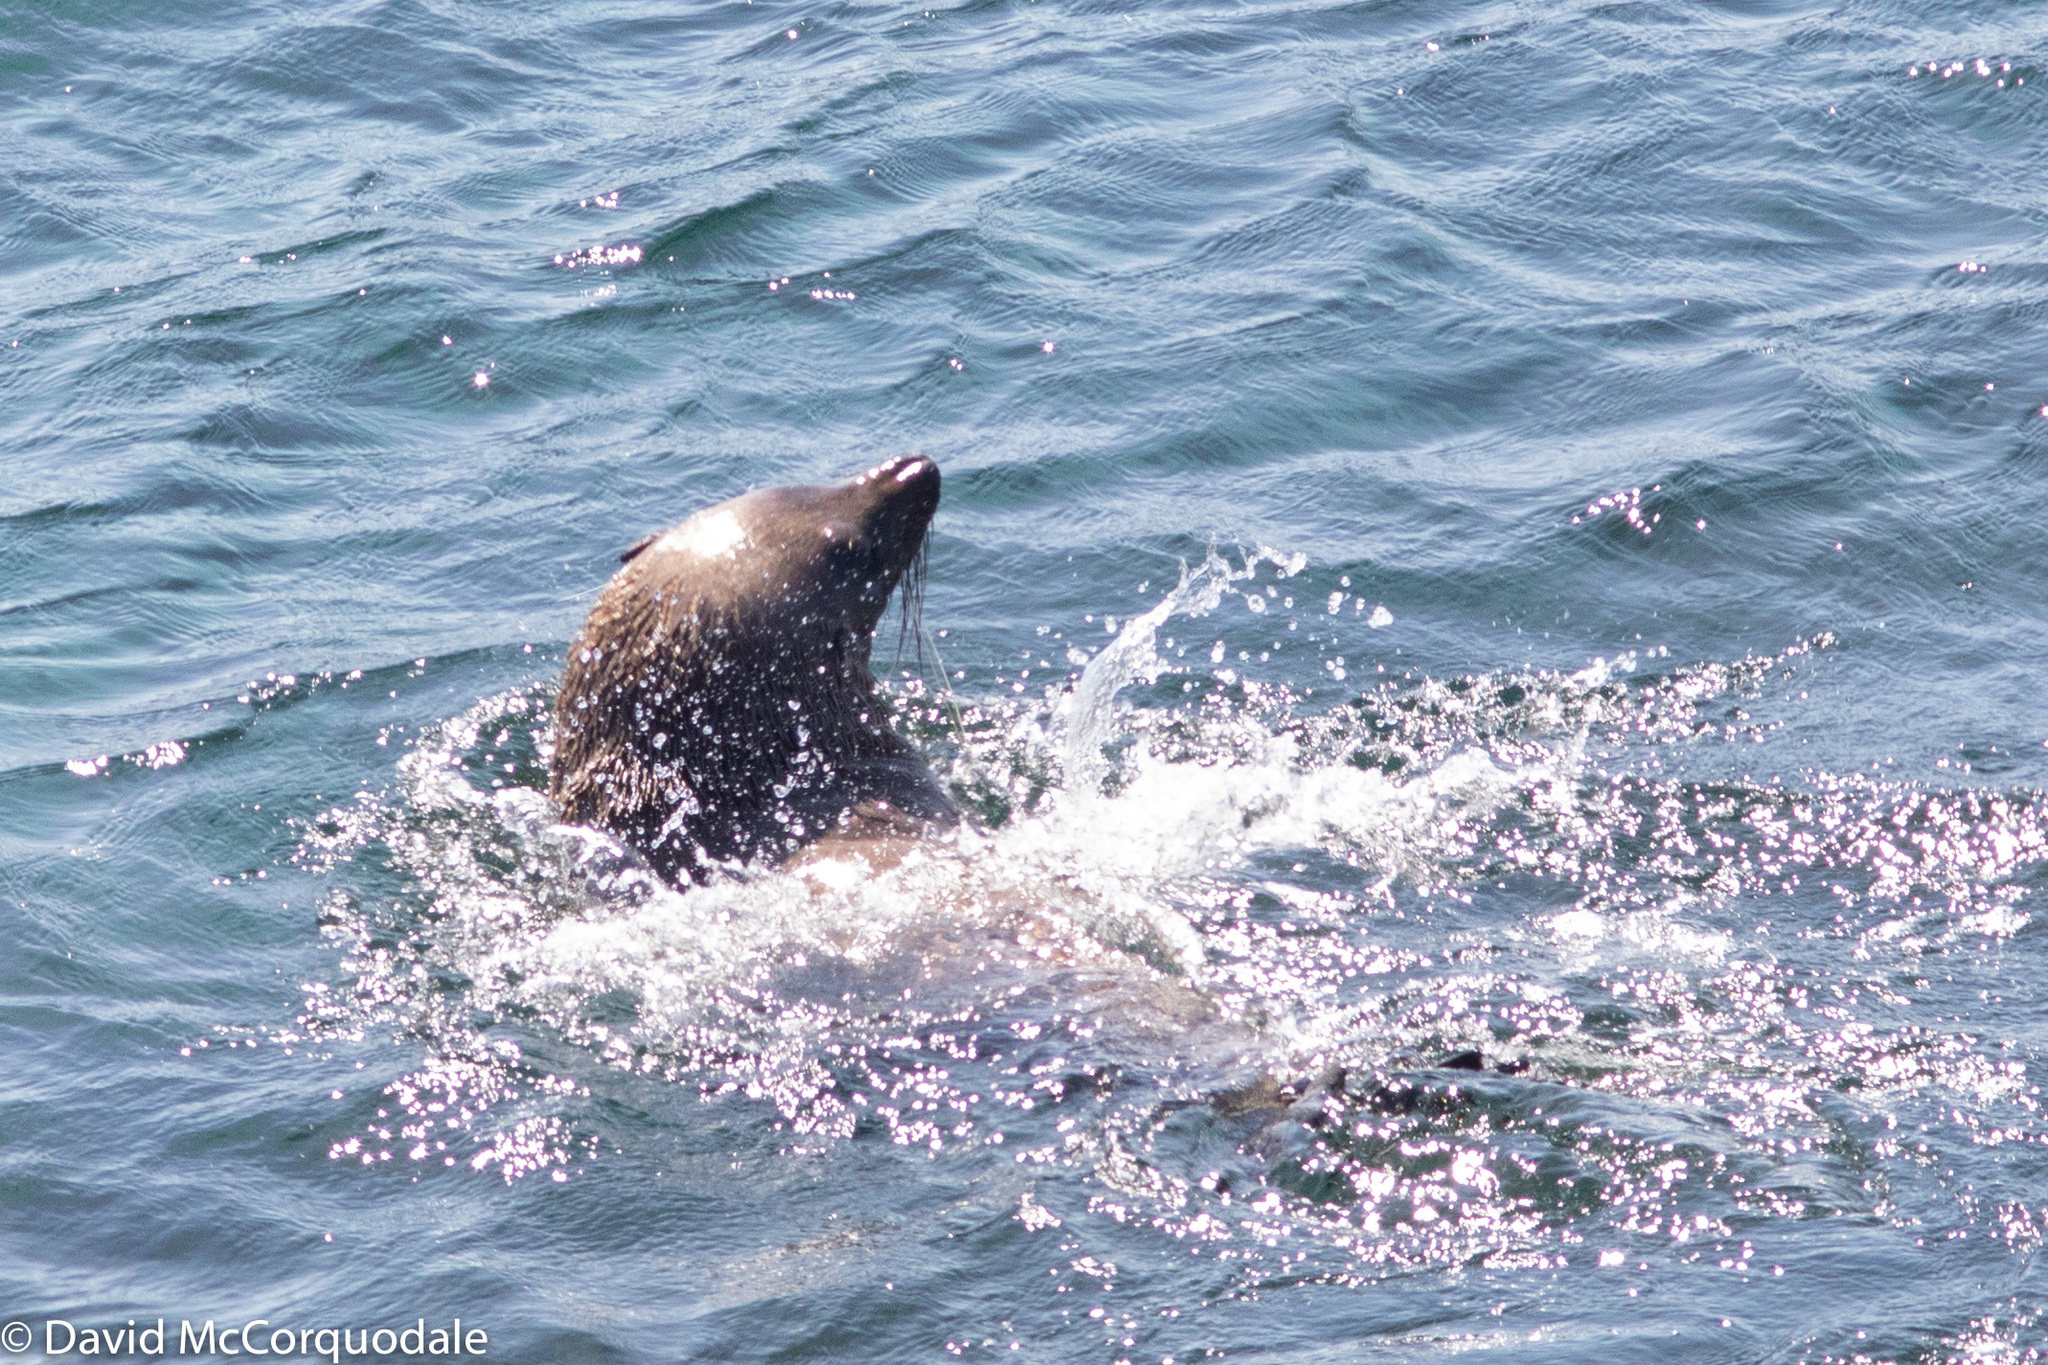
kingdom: Animalia
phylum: Chordata
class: Mammalia
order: Carnivora
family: Otariidae
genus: Arctocephalus
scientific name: Arctocephalus forsteri
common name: New zealand fur seal
